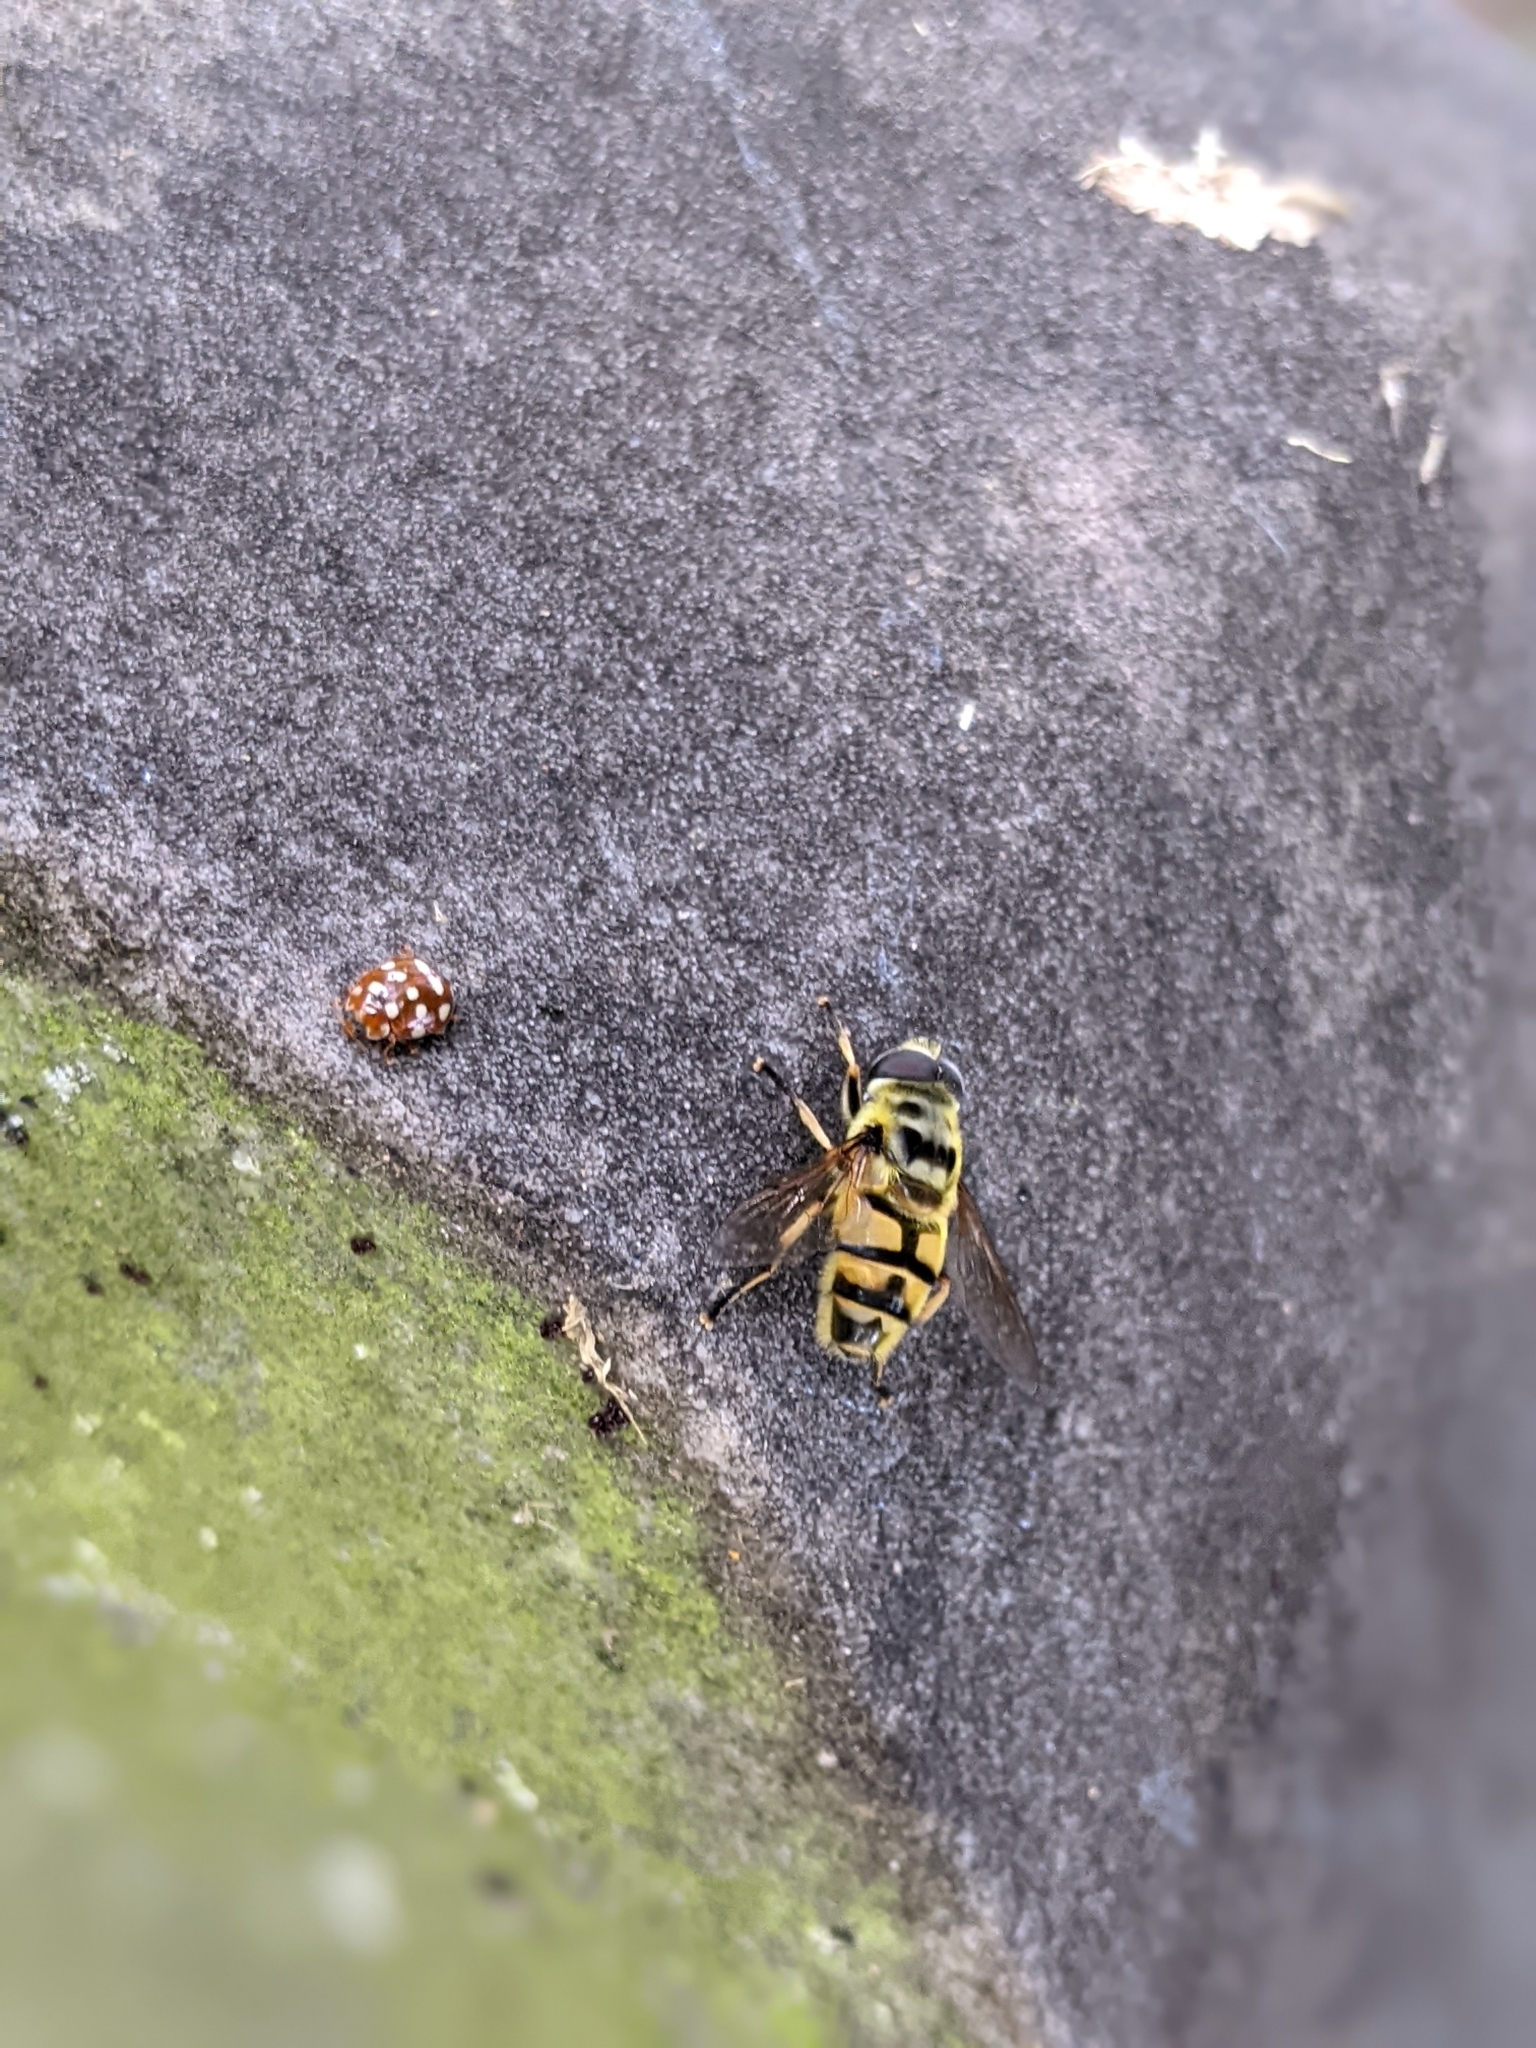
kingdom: Animalia
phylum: Arthropoda
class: Insecta
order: Diptera
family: Syrphidae
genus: Myathropa
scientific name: Myathropa florea
